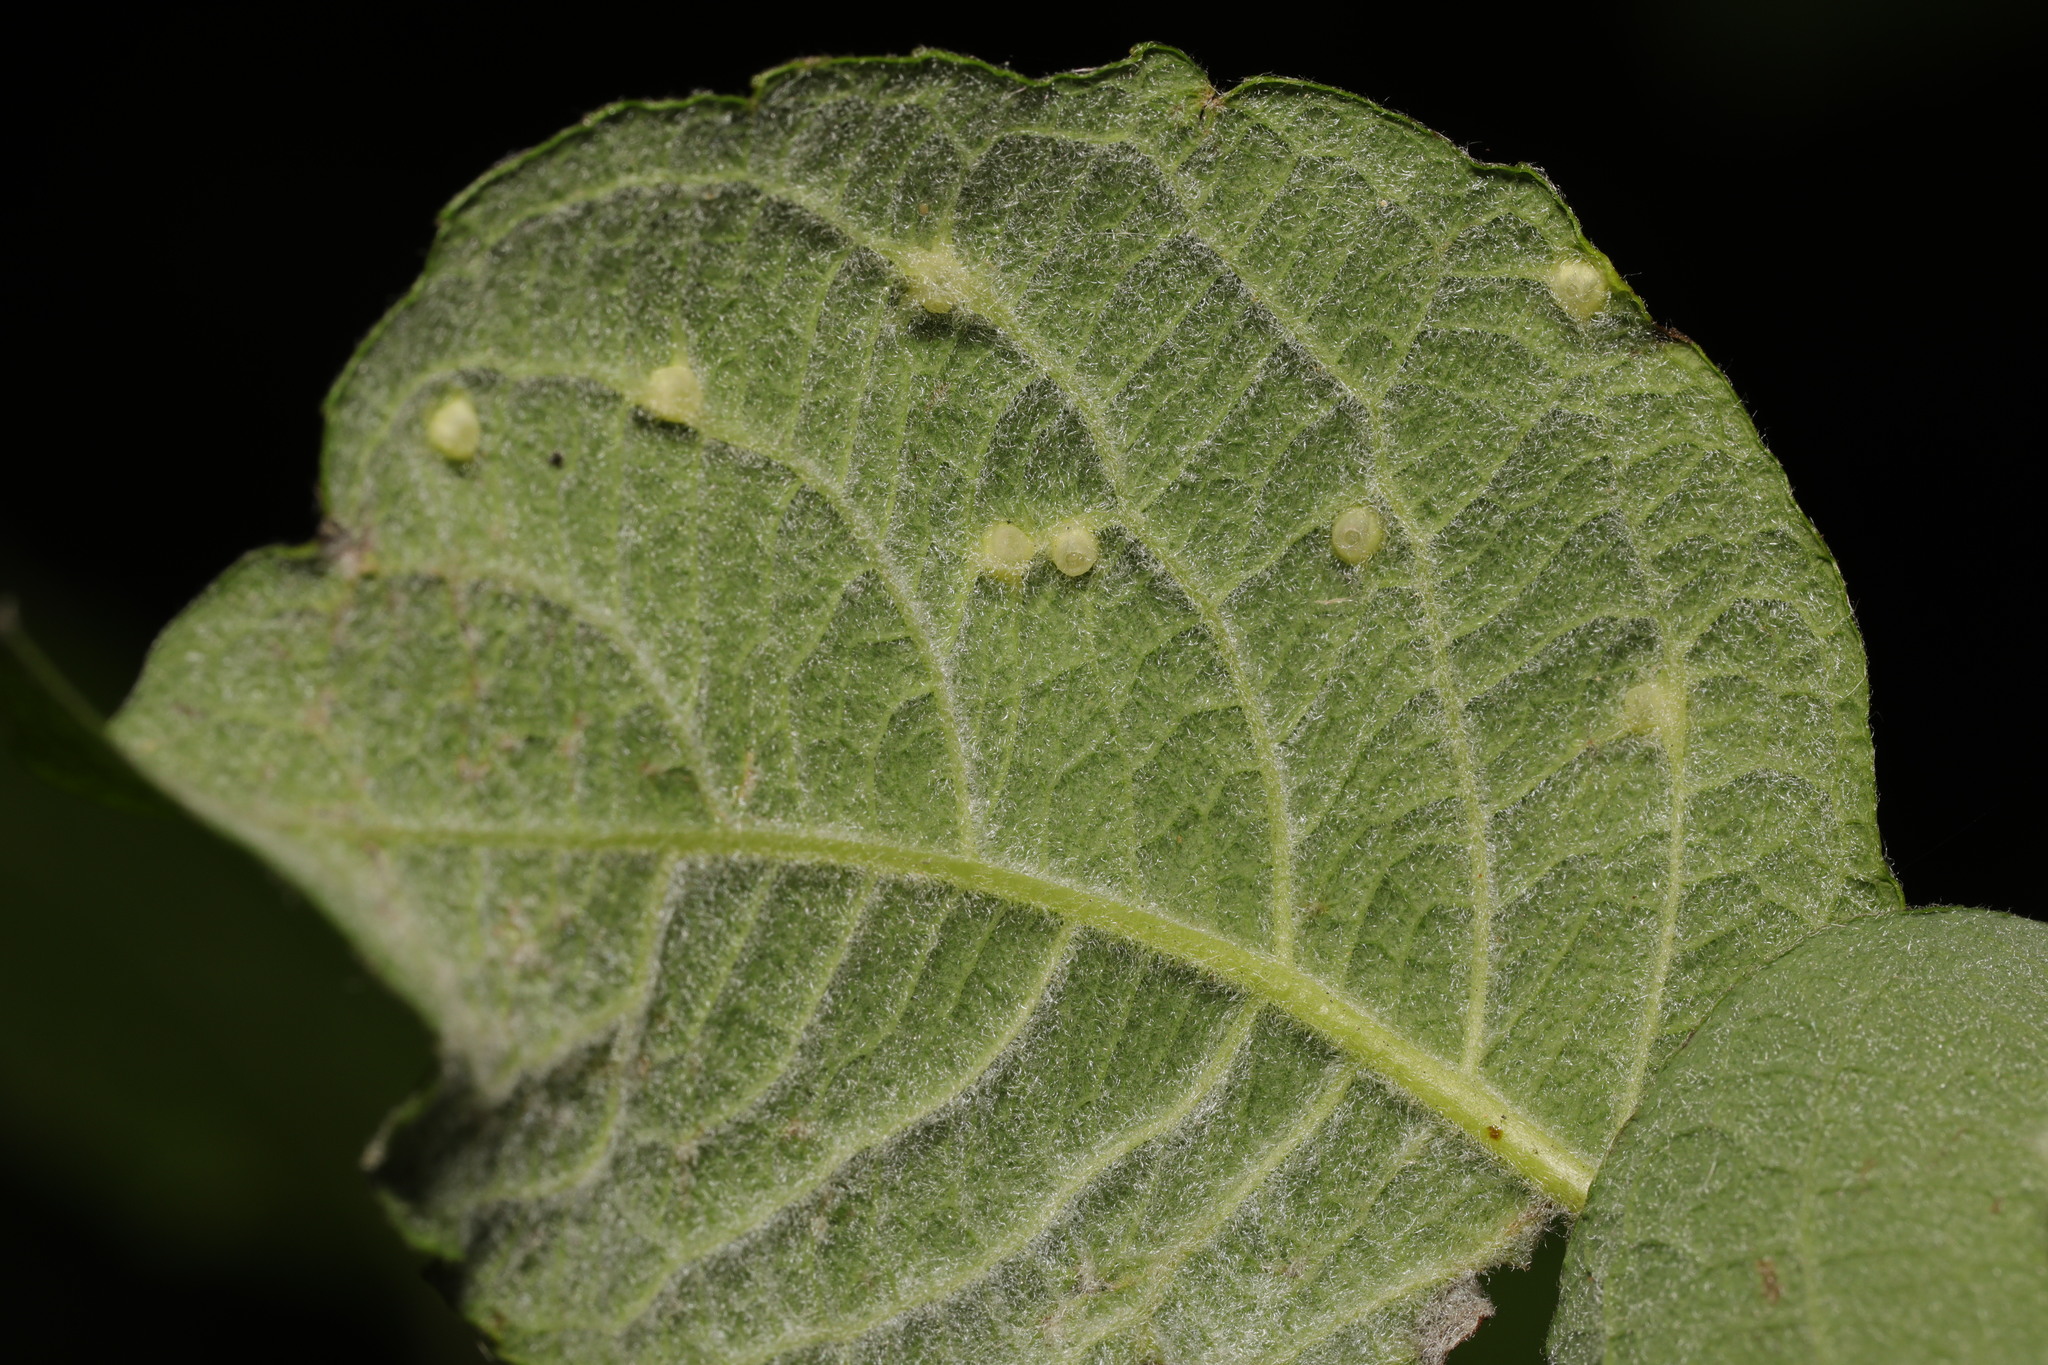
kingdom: Animalia
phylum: Arthropoda
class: Insecta
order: Diptera
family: Cecidomyiidae
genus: Iteomyia
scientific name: Iteomyia capreae
